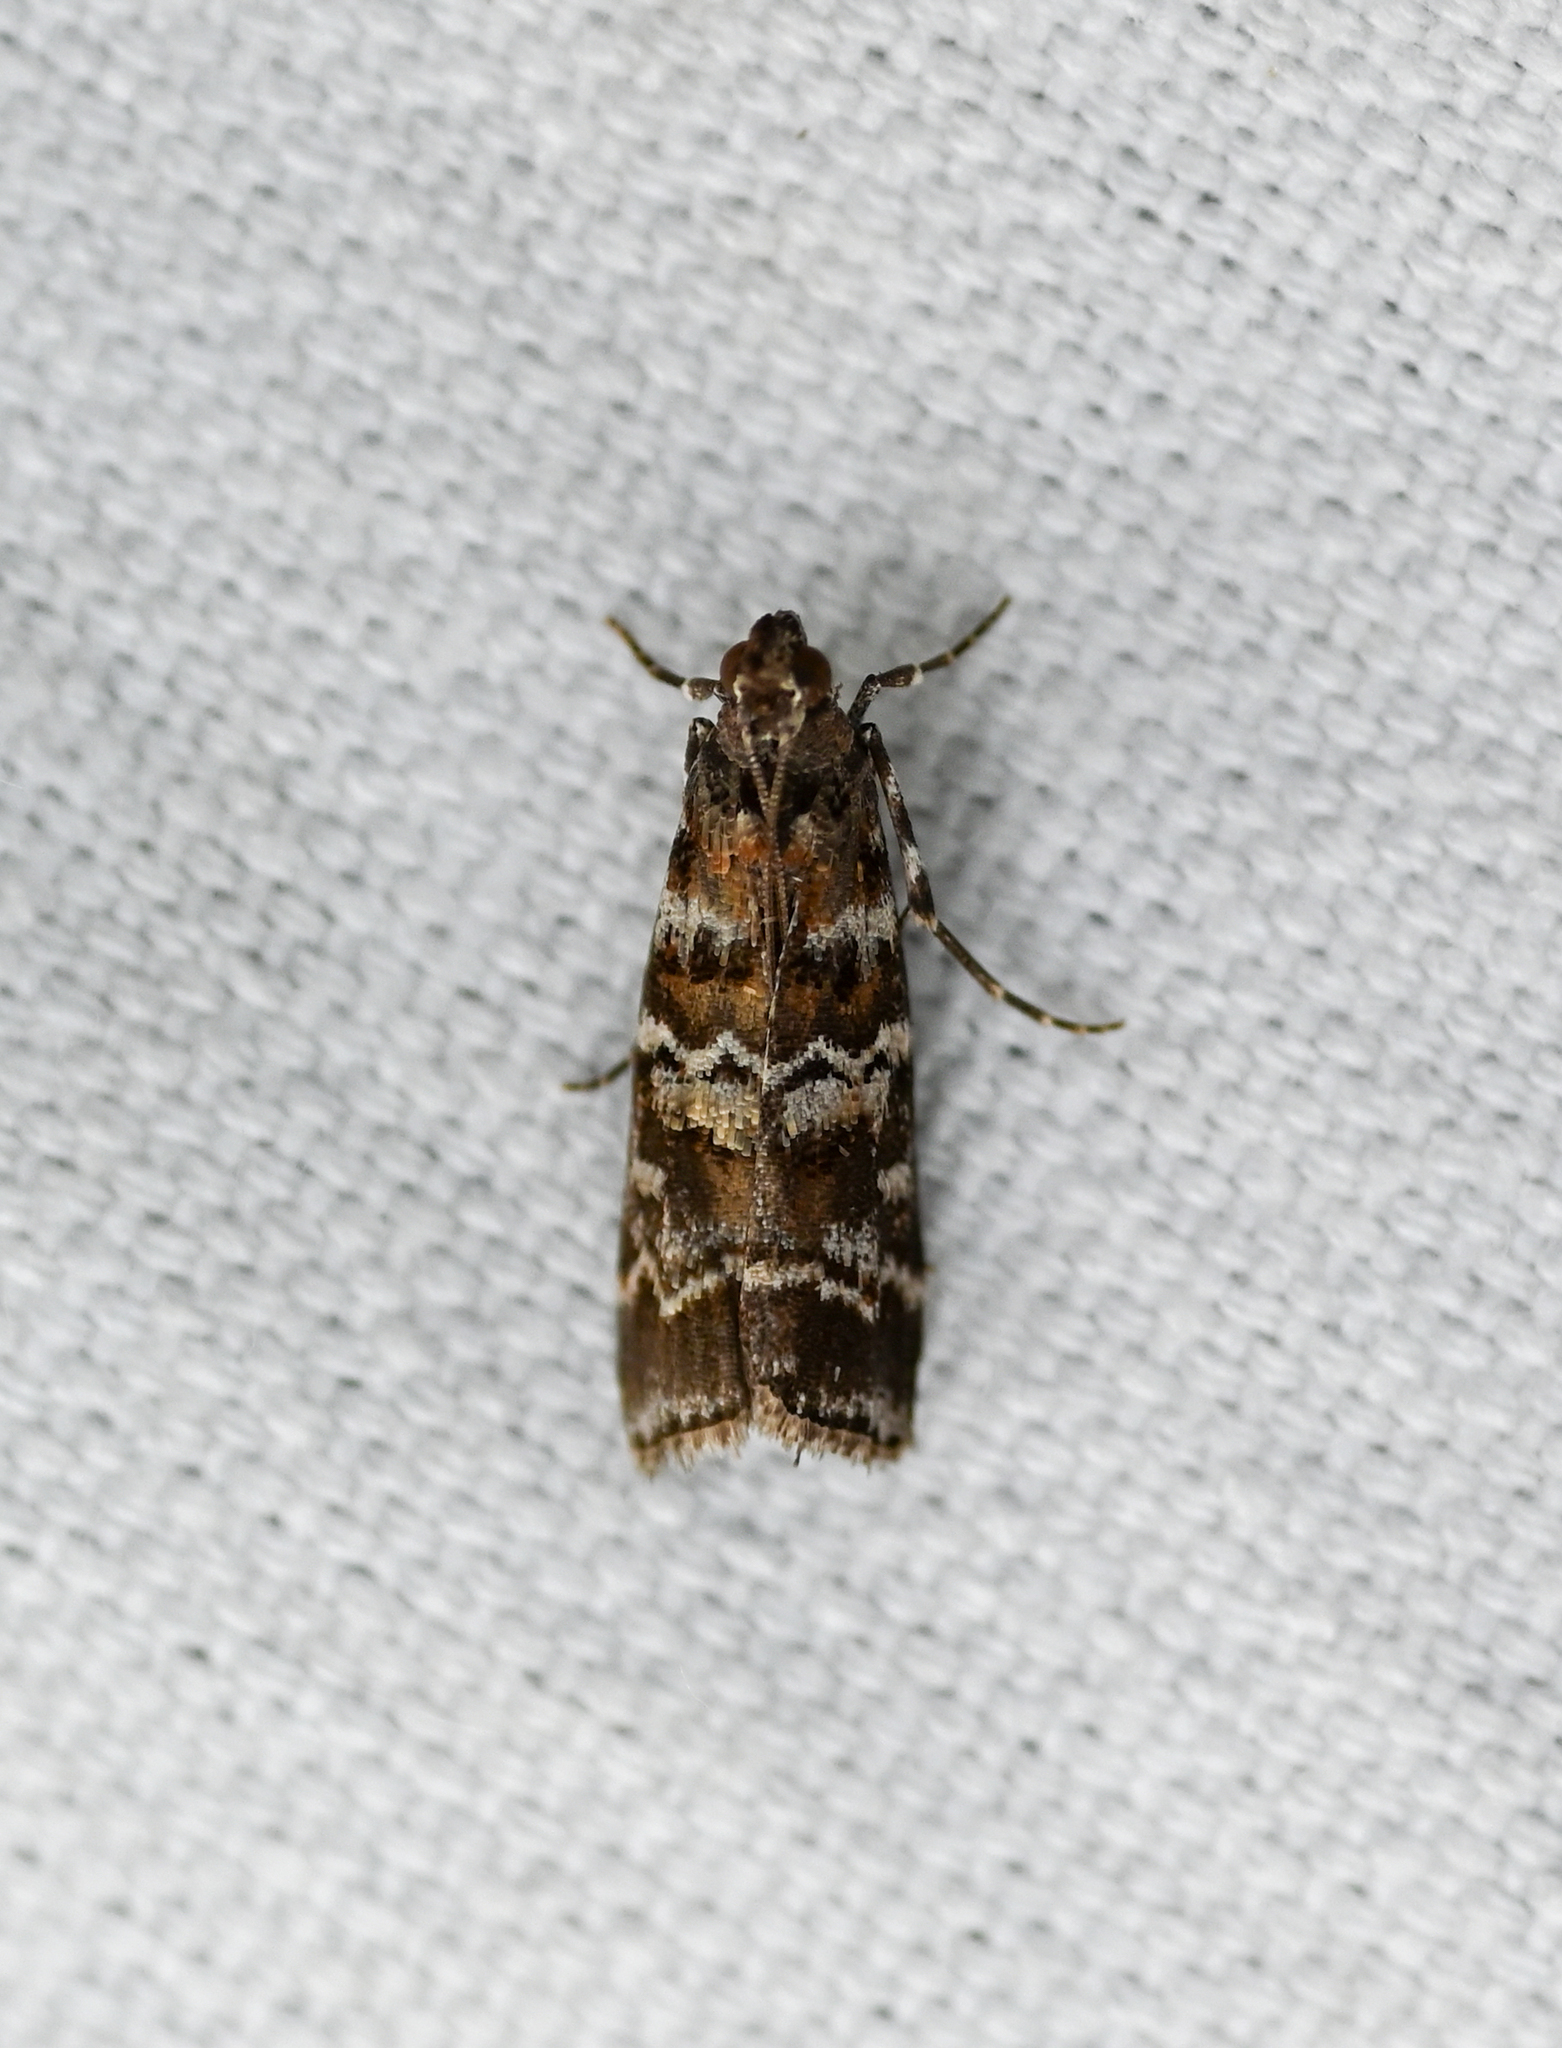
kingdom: Animalia
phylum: Arthropoda
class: Insecta
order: Lepidoptera
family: Pyralidae
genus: Dioryctria
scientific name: Dioryctria amatella
